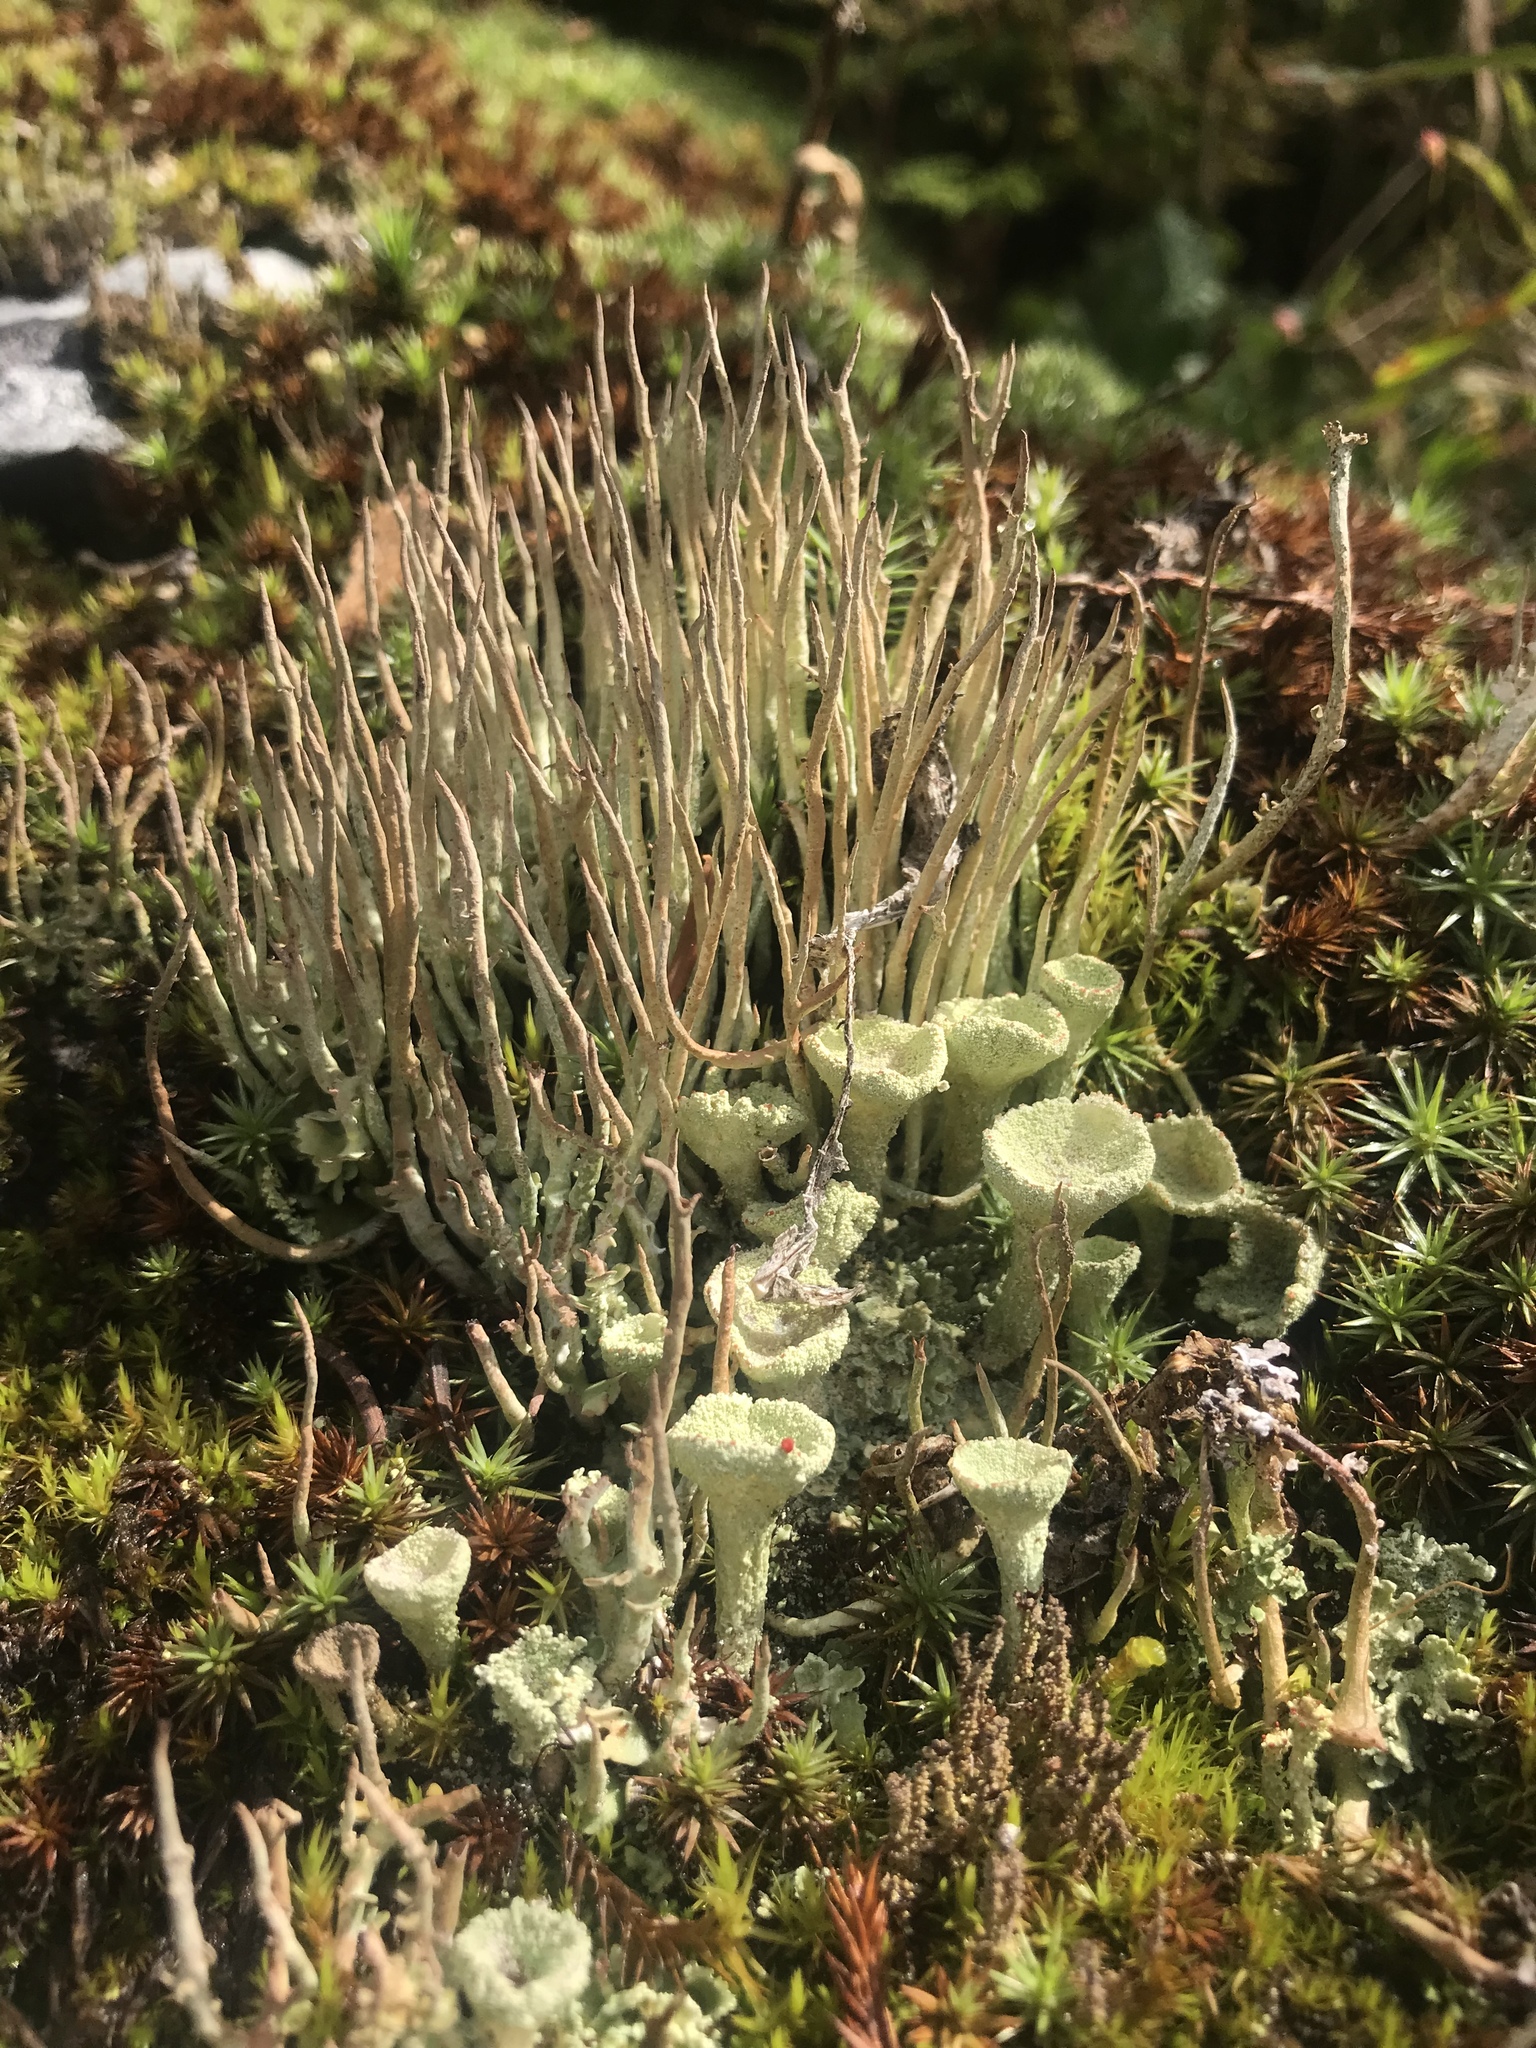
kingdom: Fungi
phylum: Ascomycota
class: Lecanoromycetes
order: Lecanorales
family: Cladoniaceae
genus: Cladonia
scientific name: Cladonia pleurota
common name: Red-fruited pixie cup
